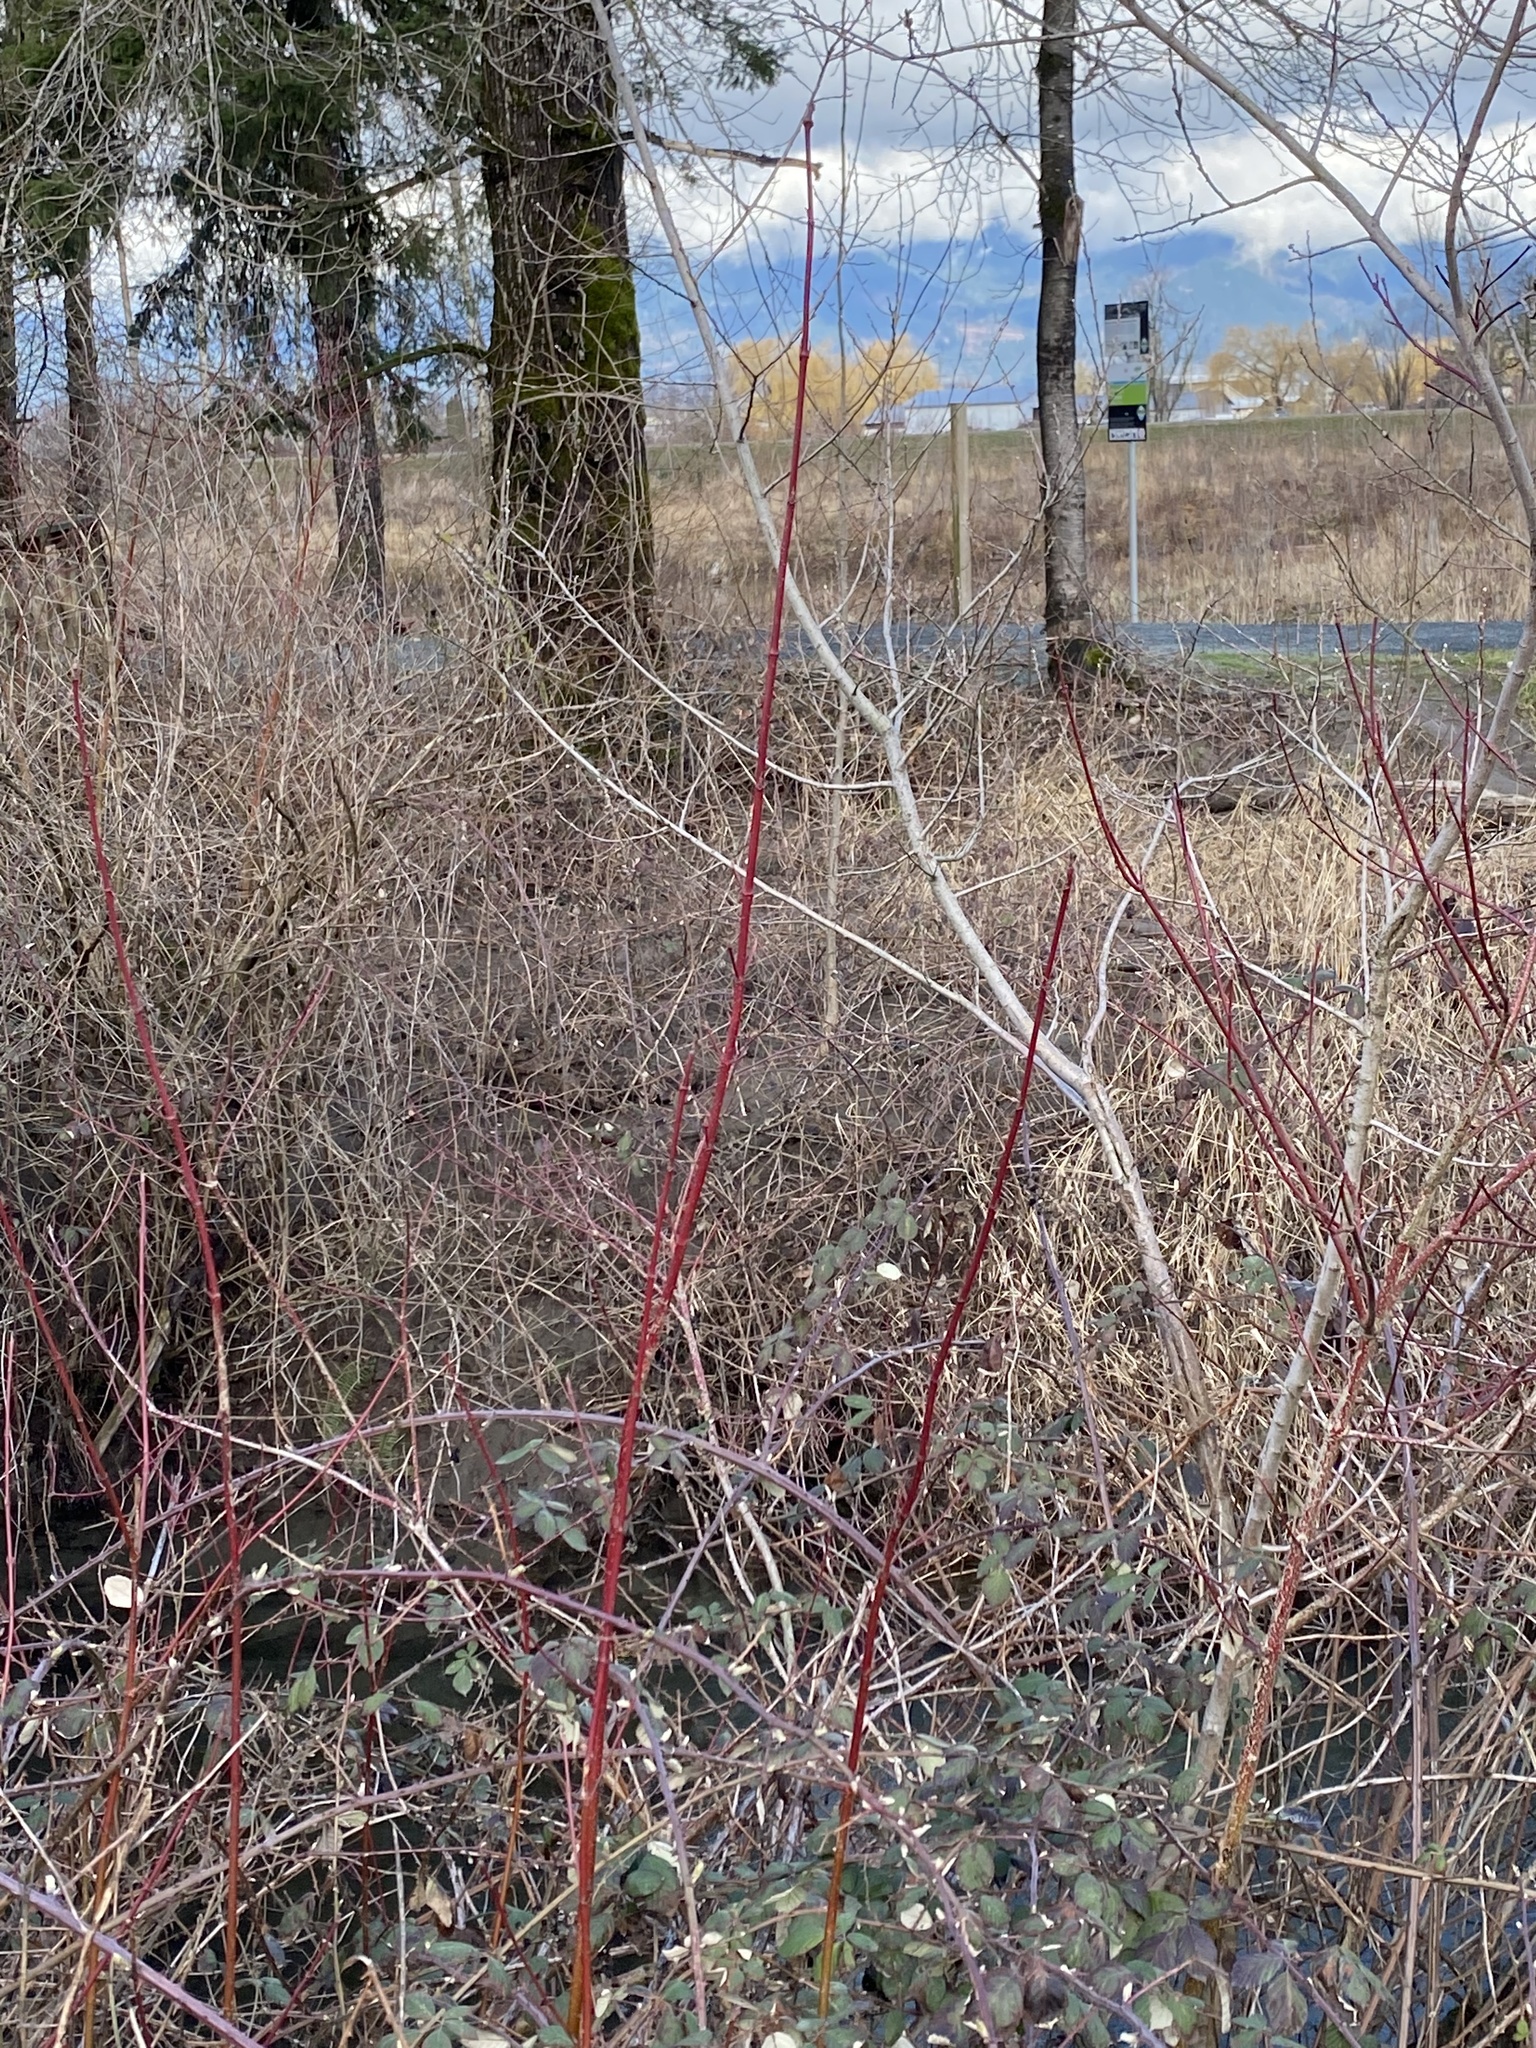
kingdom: Plantae
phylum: Tracheophyta
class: Magnoliopsida
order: Cornales
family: Cornaceae
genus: Cornus
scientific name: Cornus sericea
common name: Red-osier dogwood
